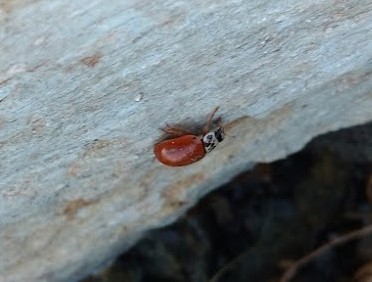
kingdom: Animalia
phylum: Arthropoda
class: Insecta
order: Coleoptera
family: Coccinellidae
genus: Mulsantina
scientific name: Mulsantina picta
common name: Painted ladybird
